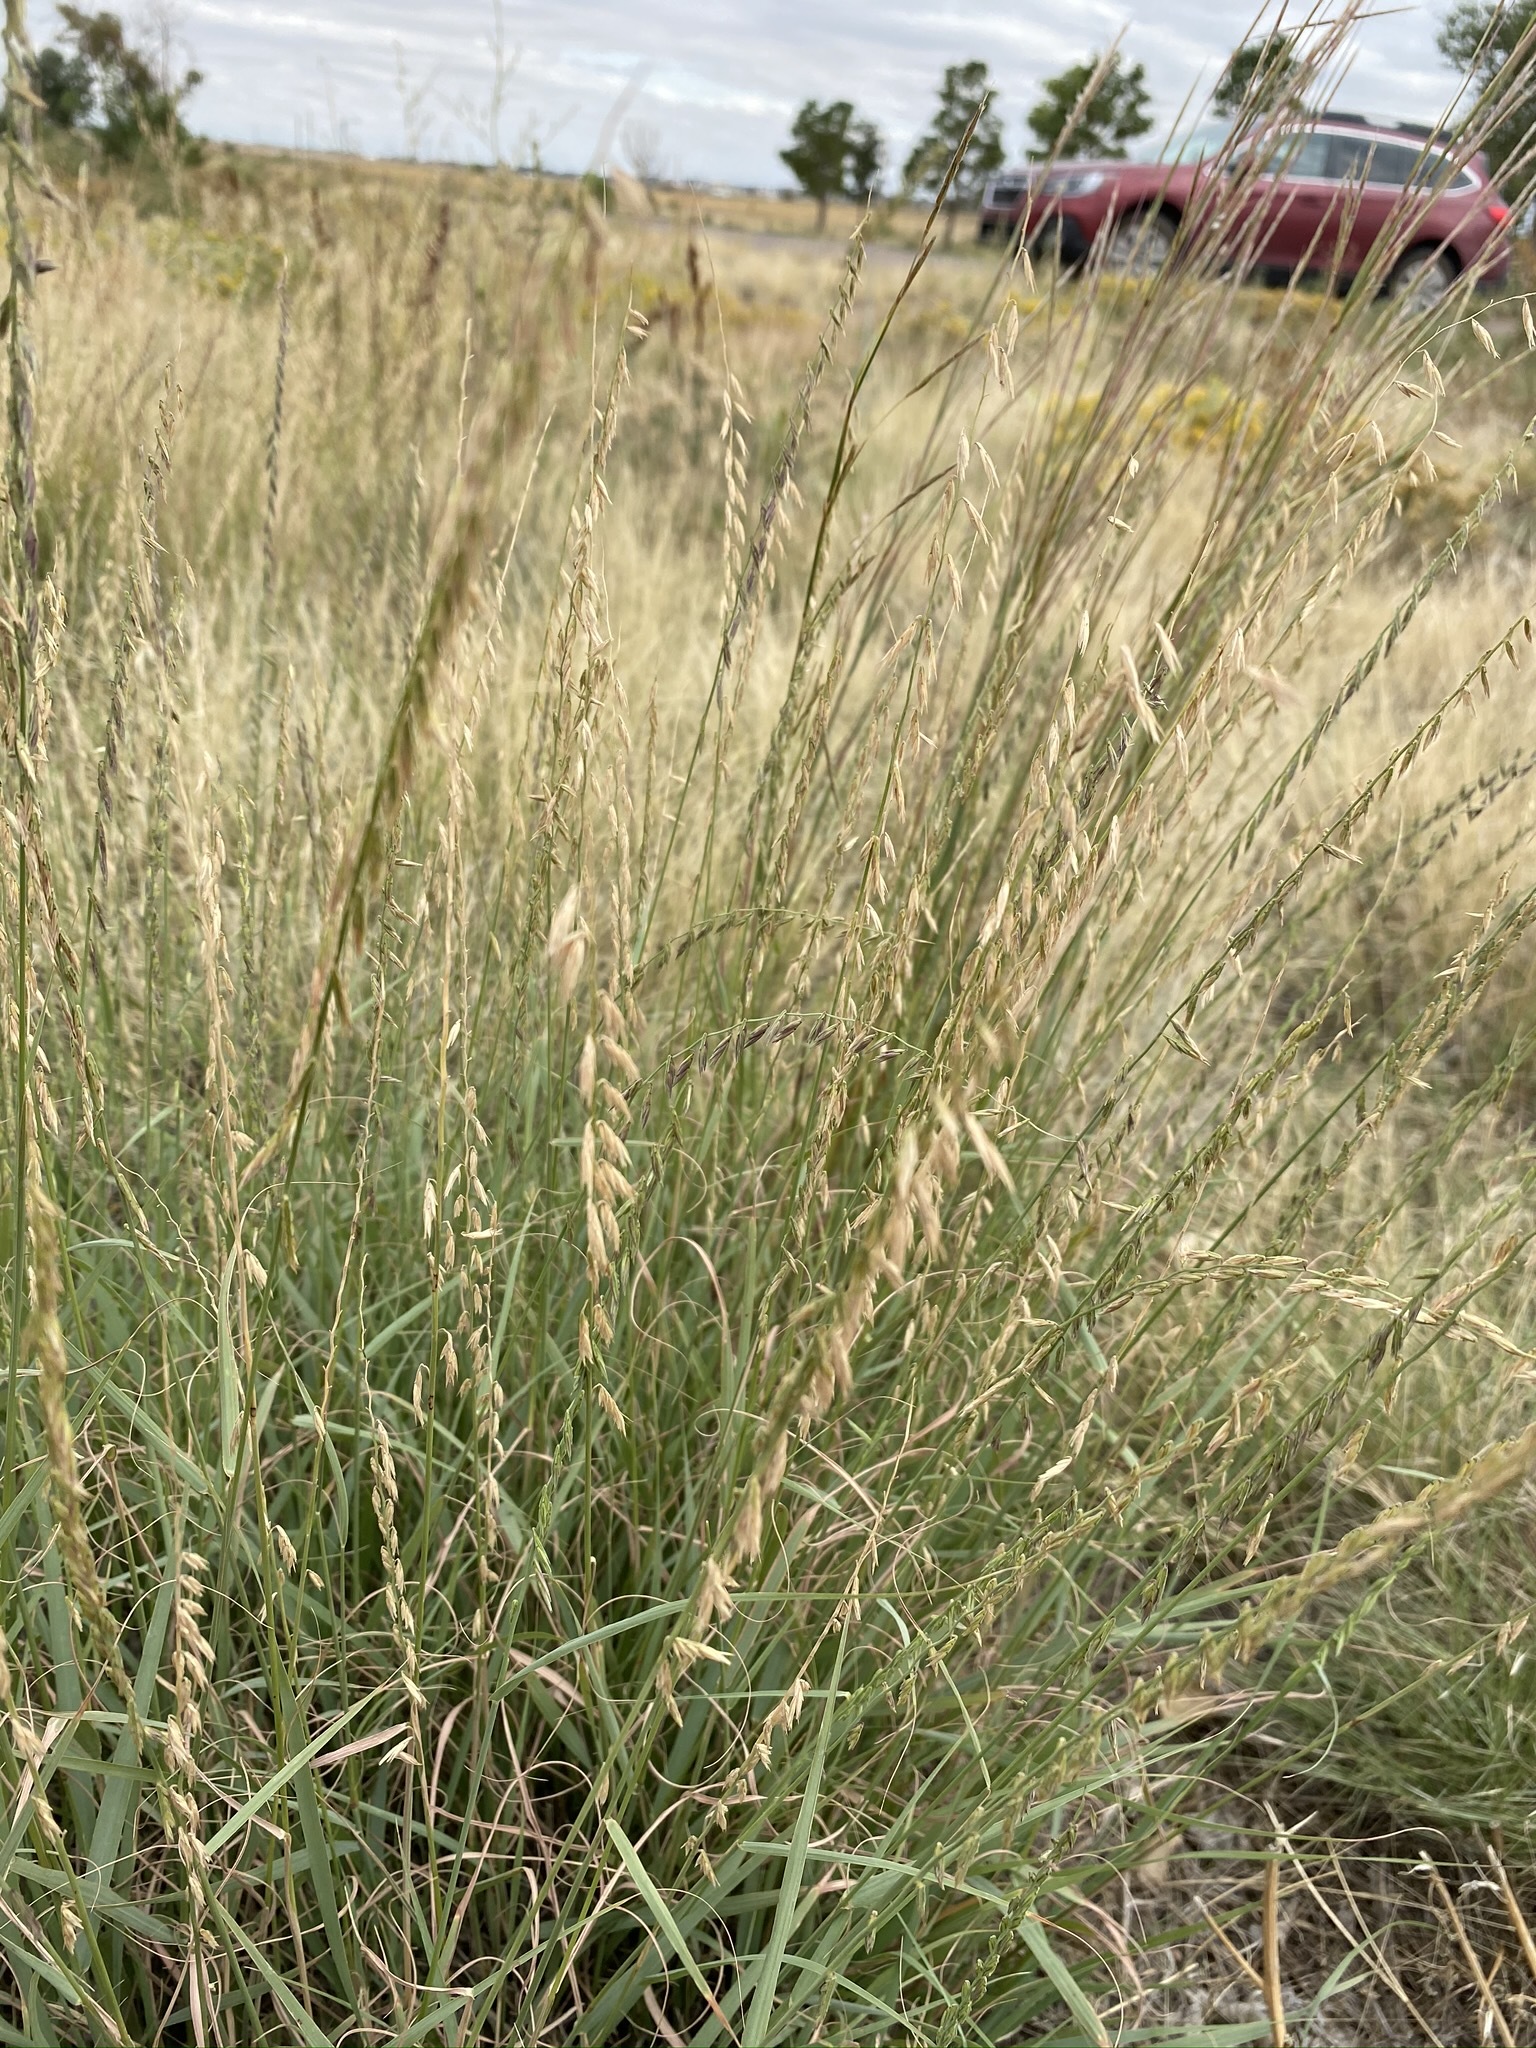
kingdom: Plantae
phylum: Tracheophyta
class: Liliopsida
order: Poales
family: Poaceae
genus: Bouteloua
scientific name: Bouteloua curtipendula
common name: Side-oats grama
